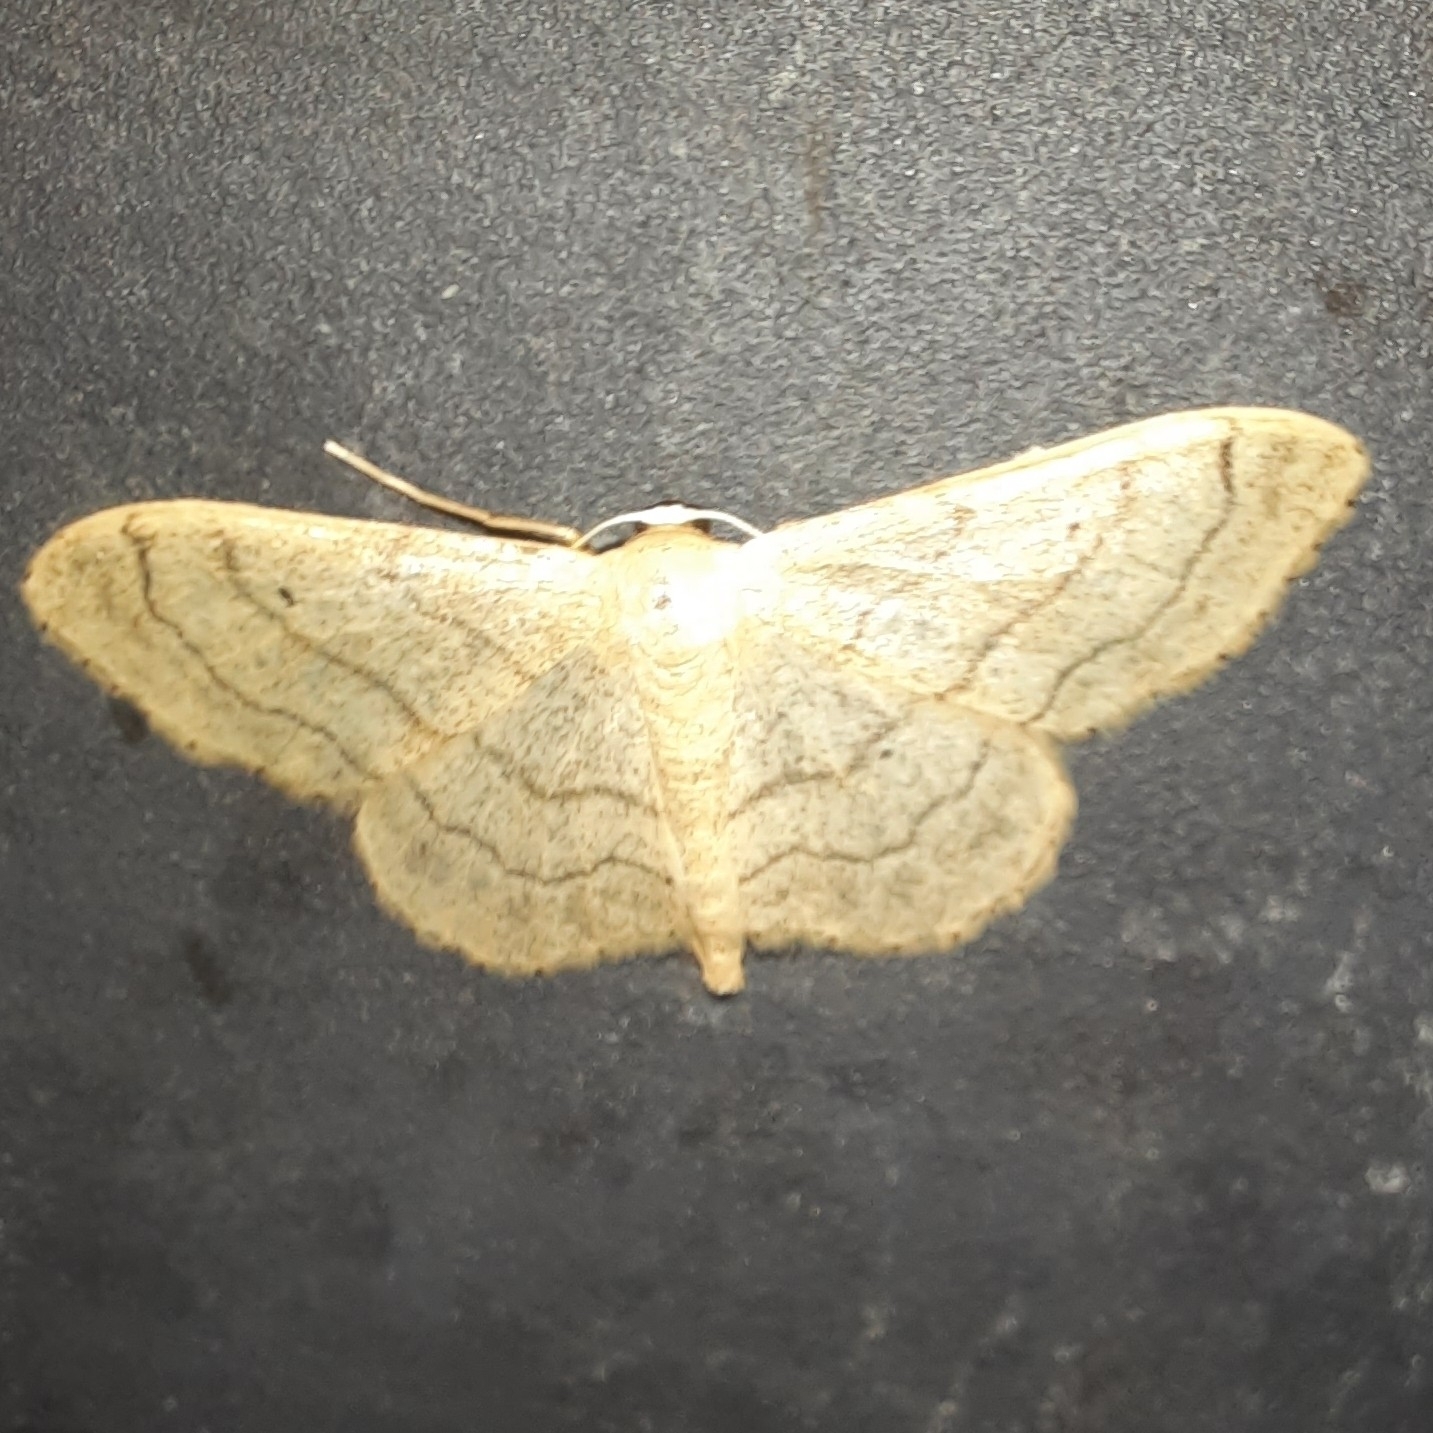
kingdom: Animalia
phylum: Arthropoda
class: Insecta
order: Lepidoptera
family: Geometridae
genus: Idaea
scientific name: Idaea aversata
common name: Riband wave
